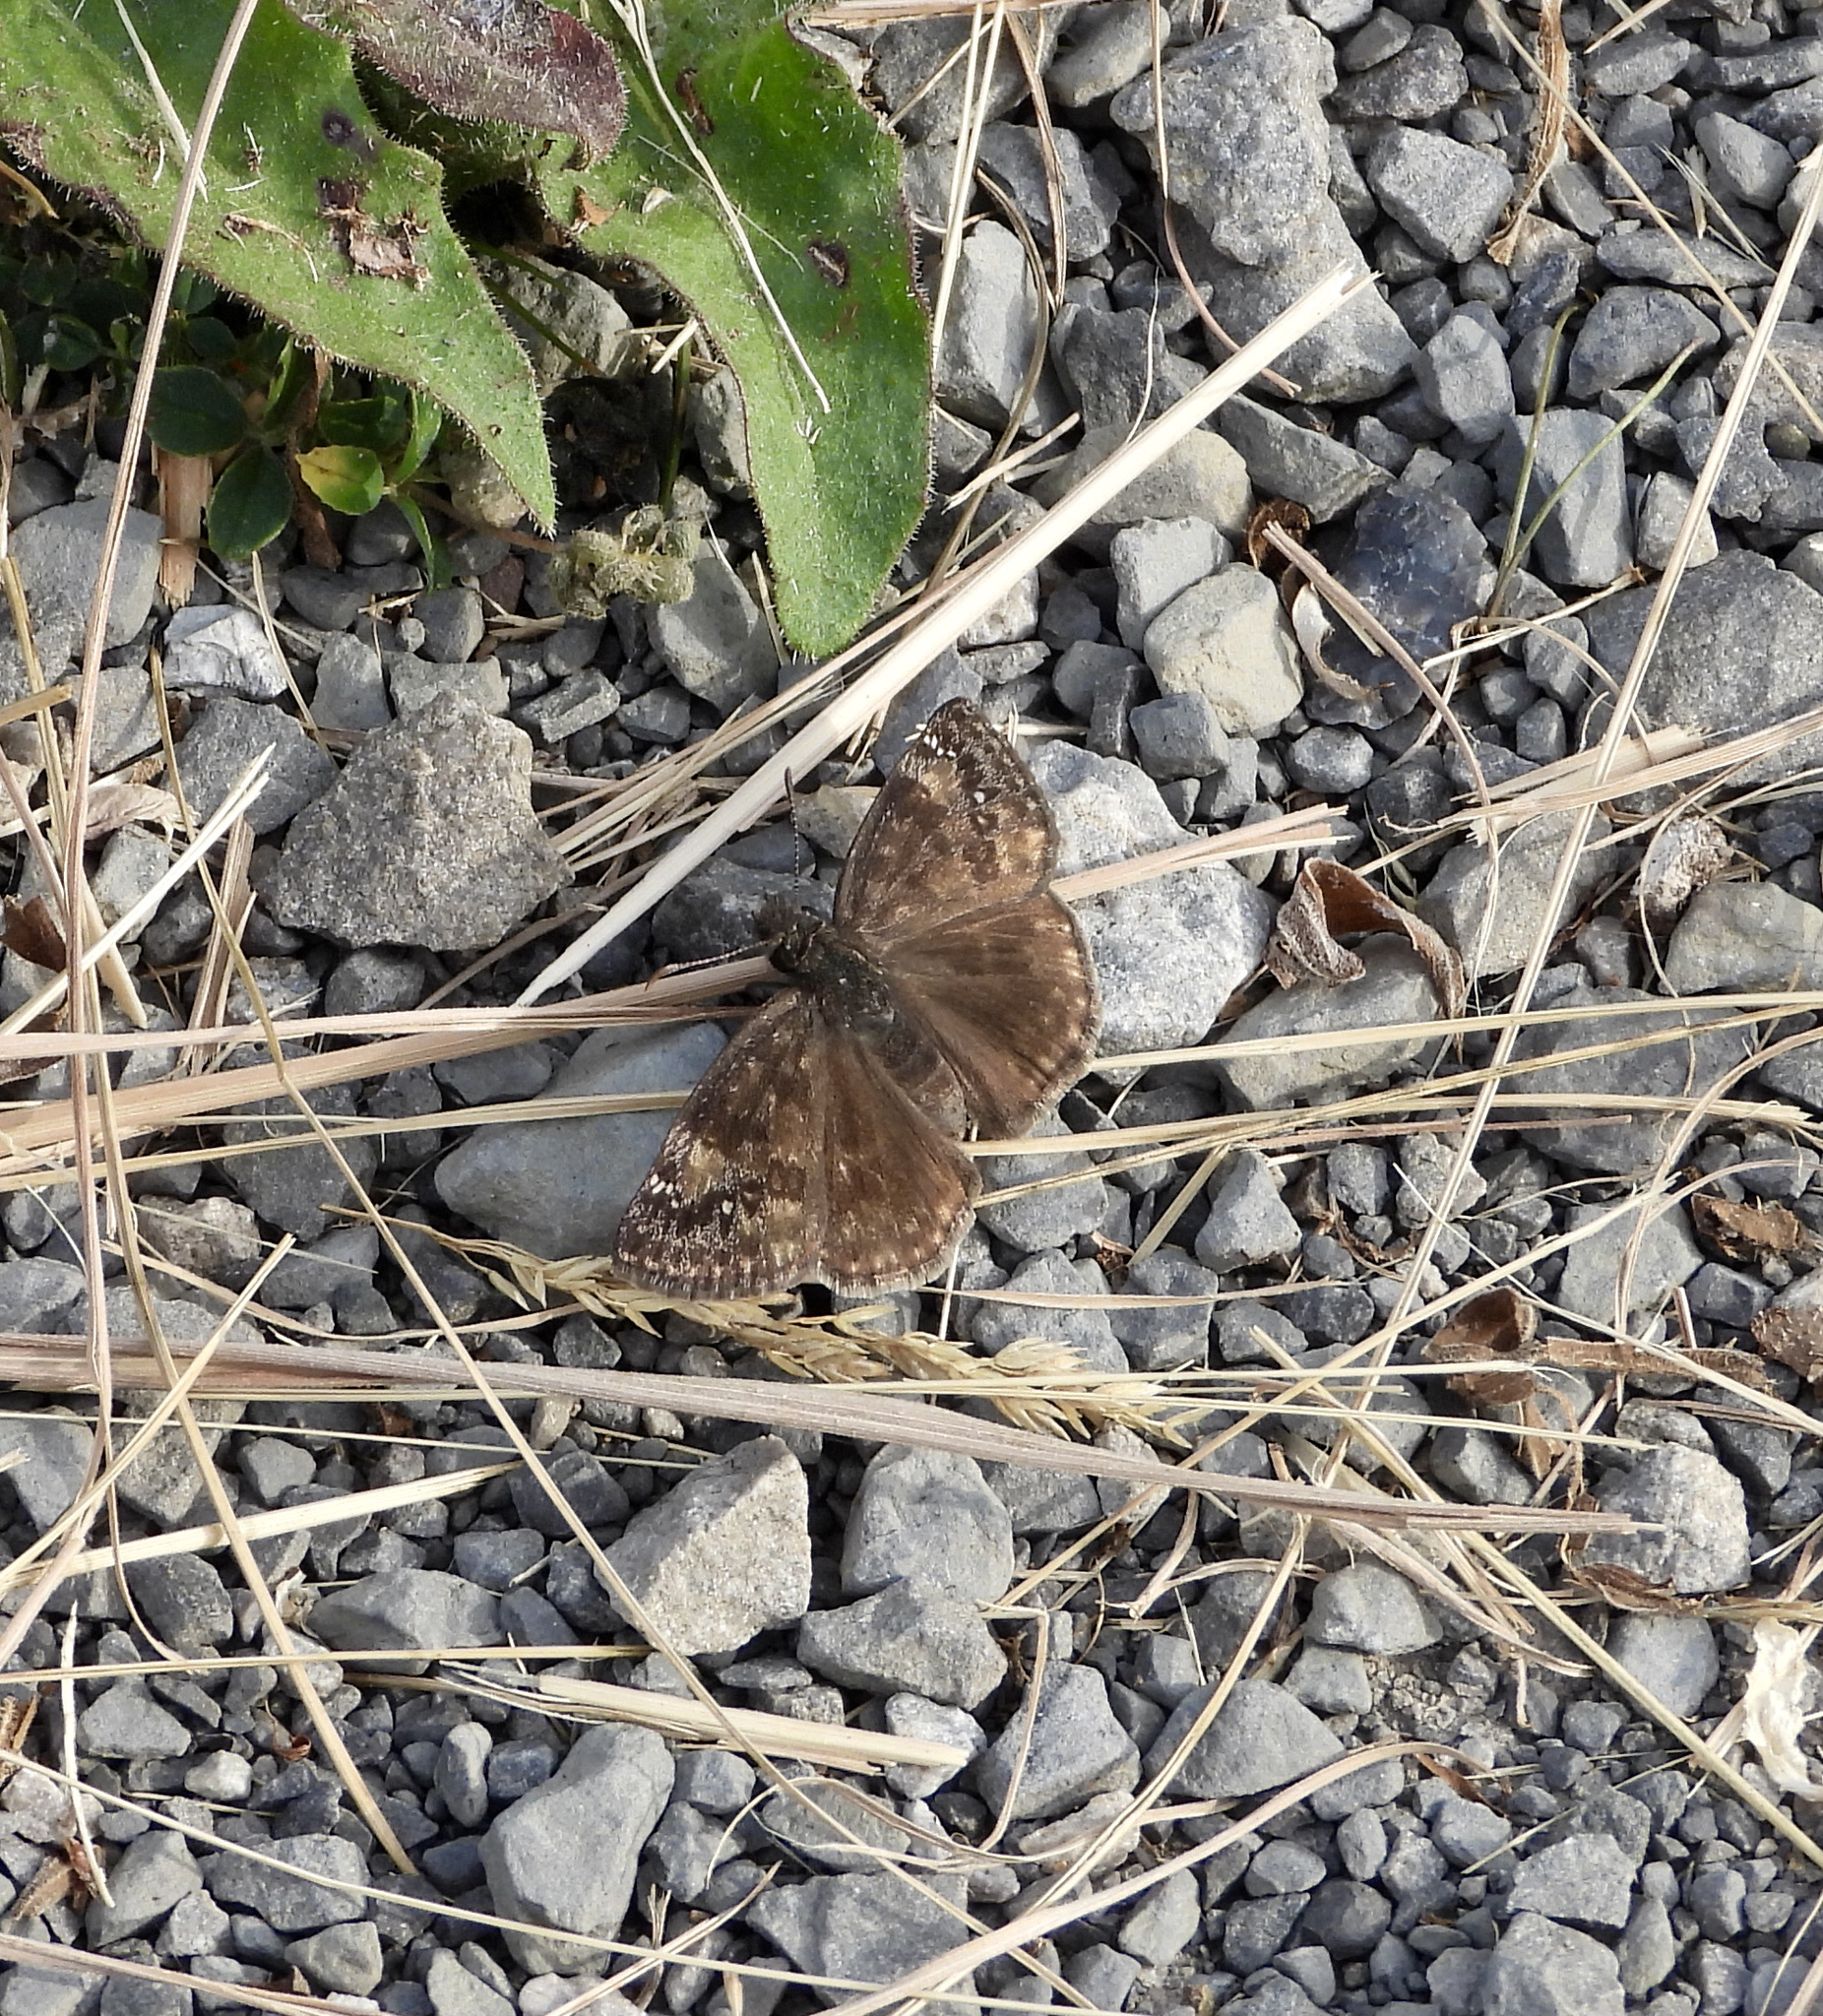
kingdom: Animalia
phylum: Arthropoda
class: Insecta
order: Lepidoptera
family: Hesperiidae
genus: Erynnis
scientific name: Erynnis baptisiae
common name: Wild indigo duskywing
